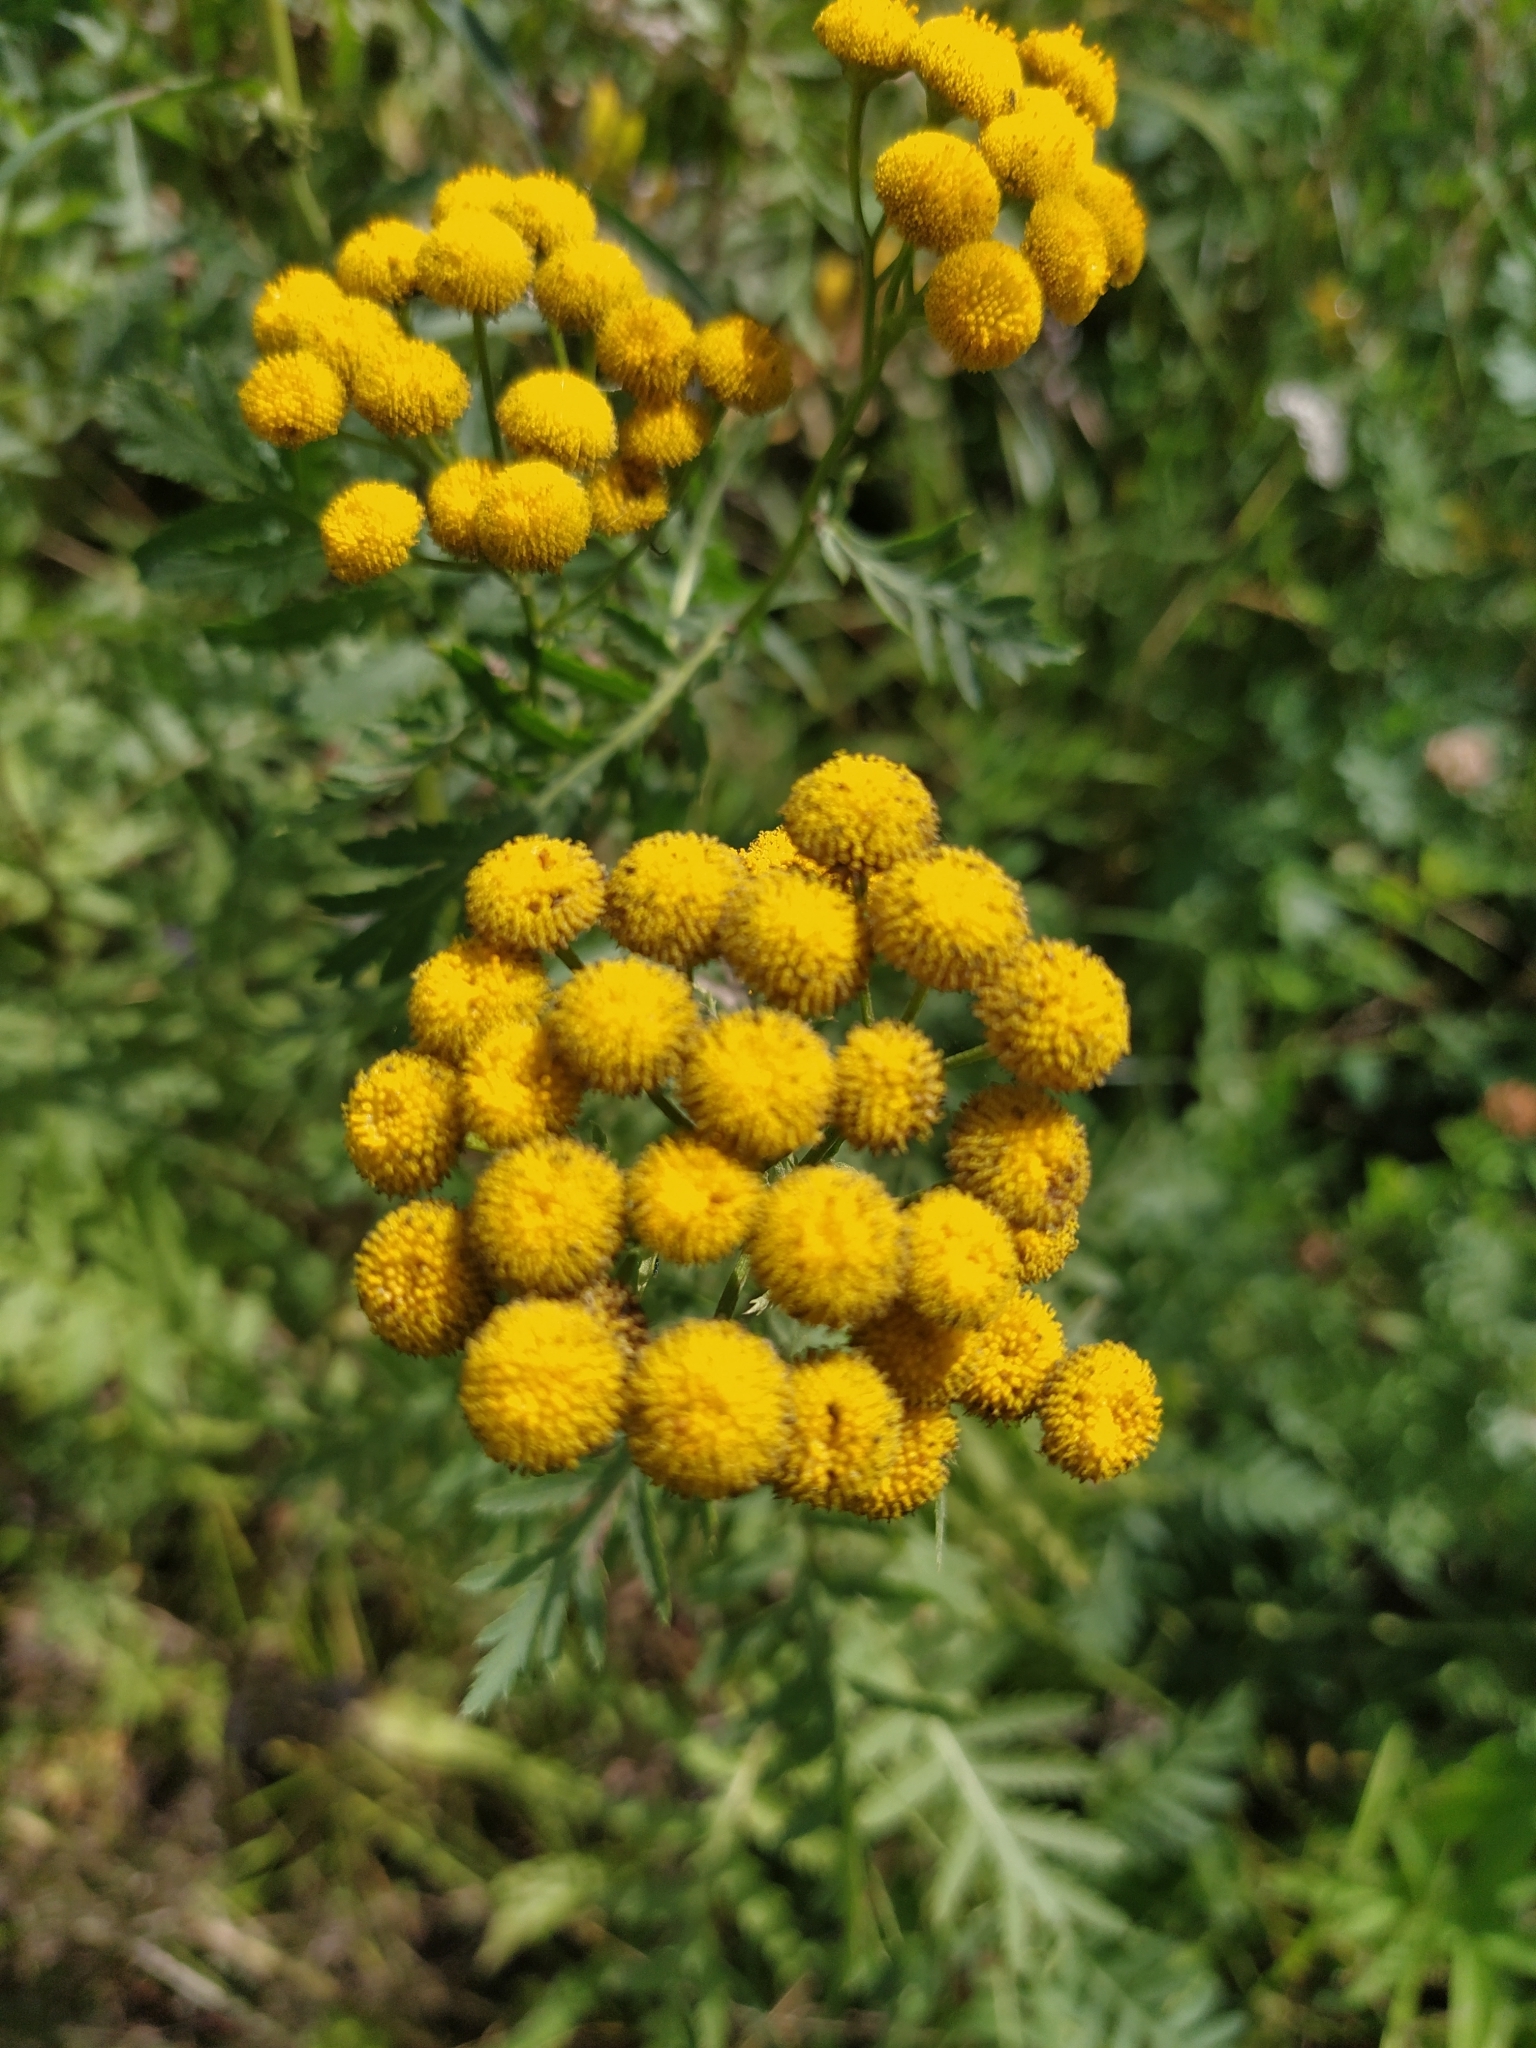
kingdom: Plantae
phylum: Tracheophyta
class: Magnoliopsida
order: Asterales
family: Asteraceae
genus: Tanacetum
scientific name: Tanacetum vulgare
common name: Common tansy
